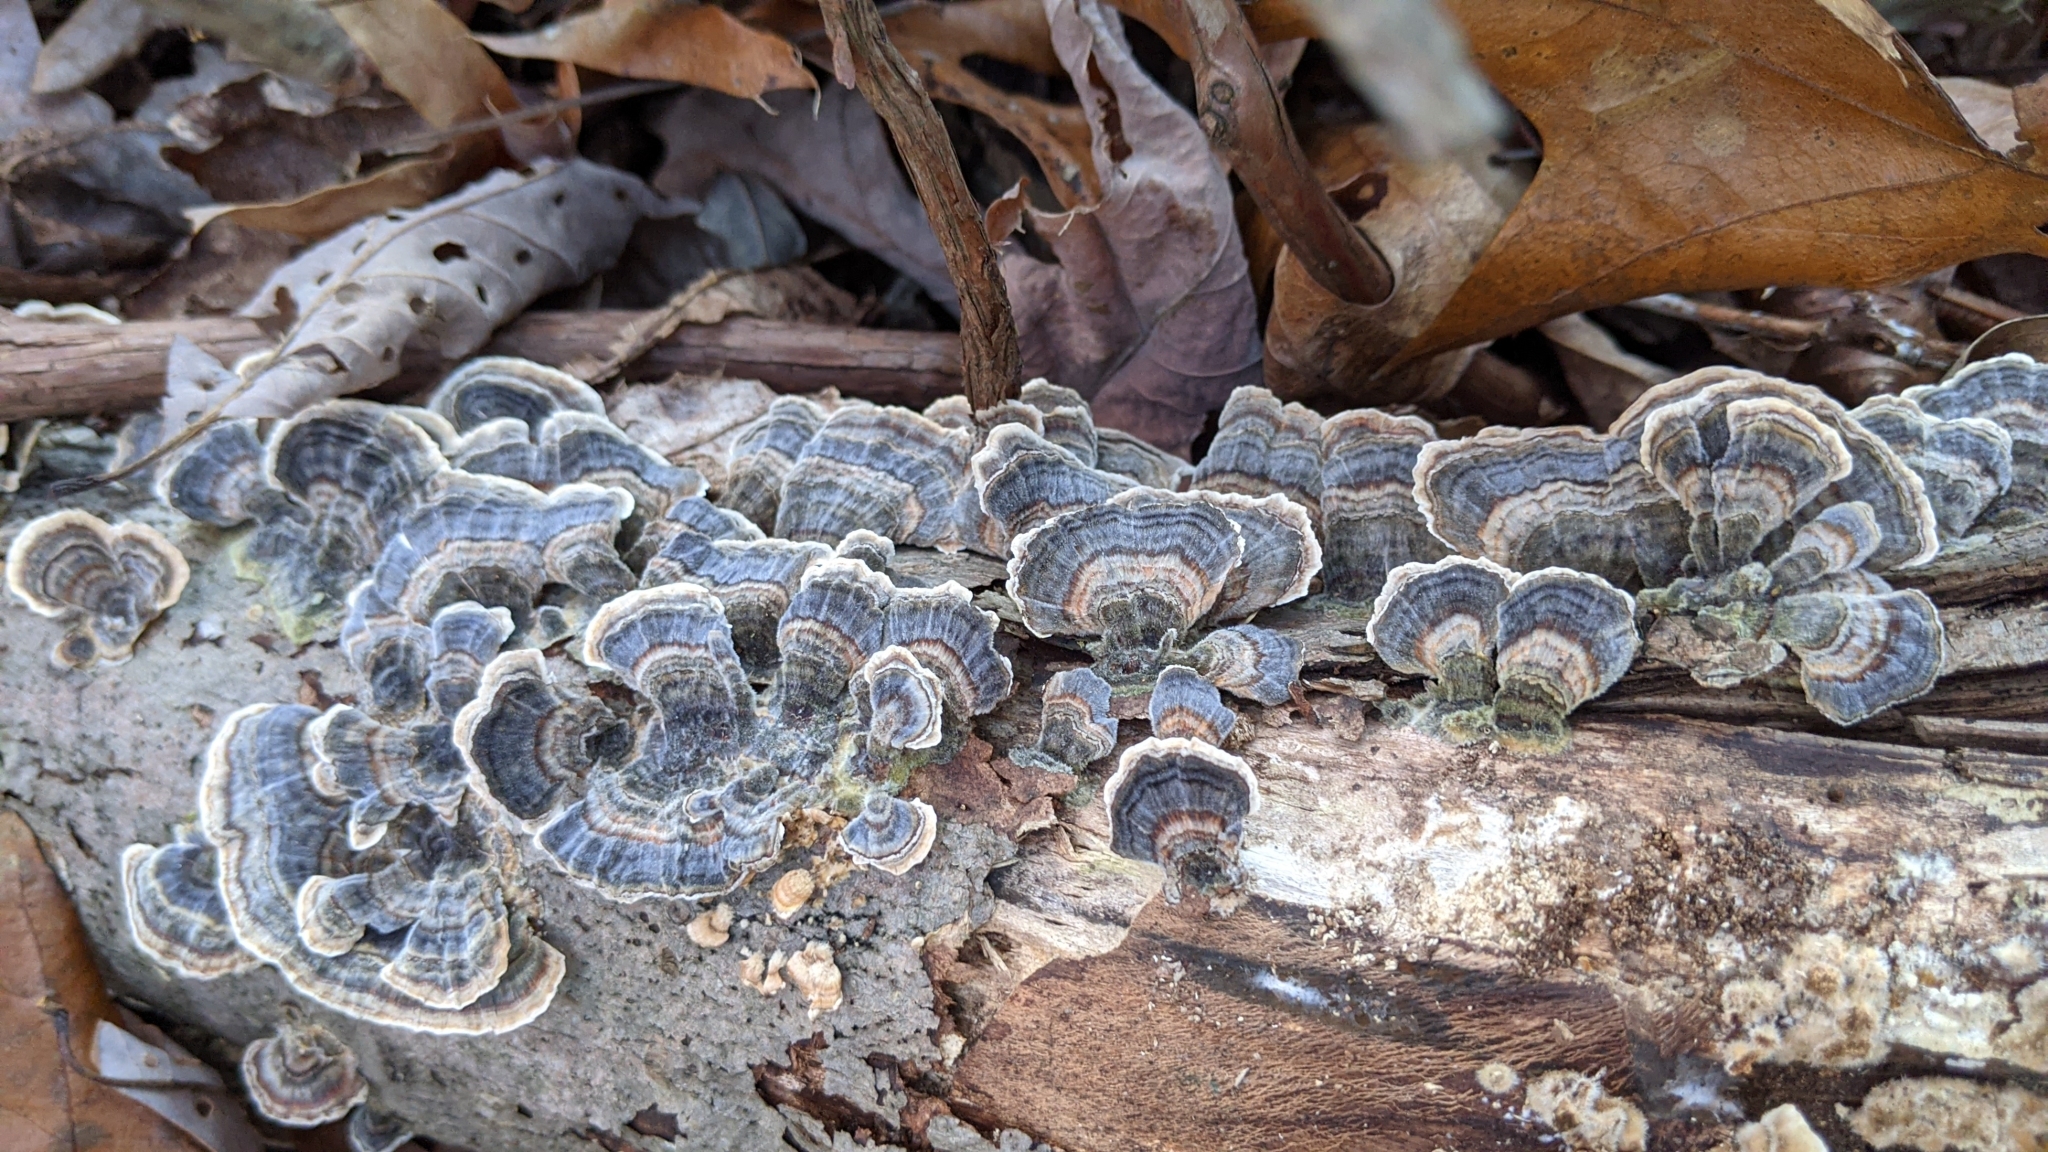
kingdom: Fungi
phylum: Basidiomycota
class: Agaricomycetes
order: Polyporales
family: Polyporaceae
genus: Trametes
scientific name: Trametes versicolor
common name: Turkeytail
